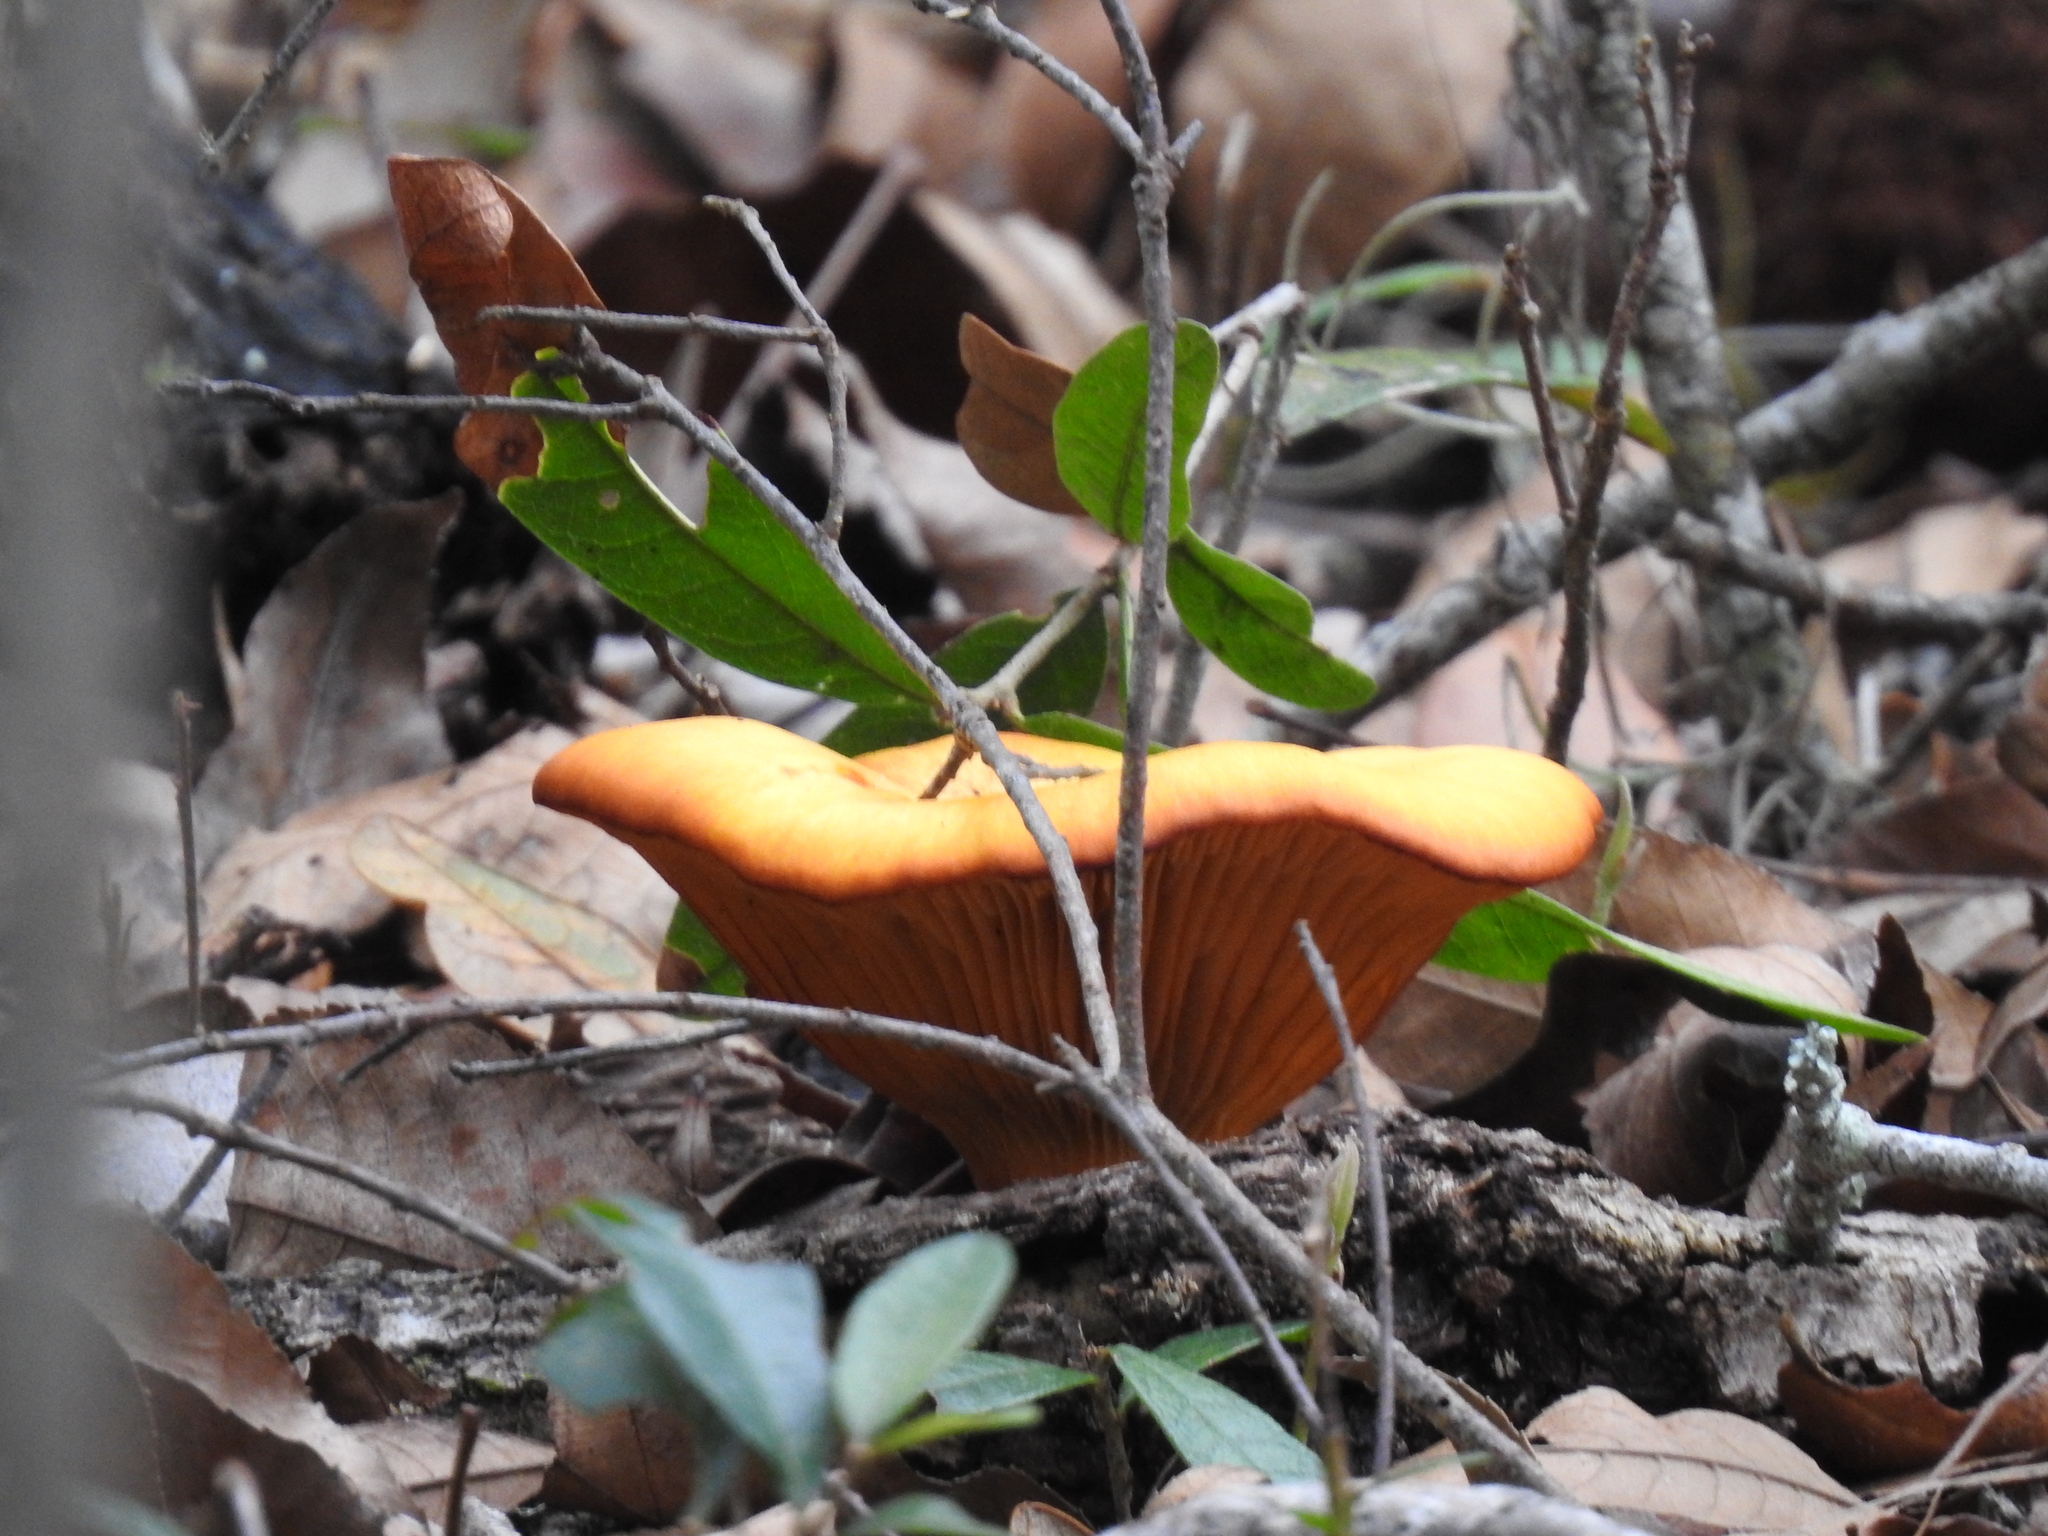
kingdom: Fungi
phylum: Basidiomycota
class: Agaricomycetes
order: Agaricales
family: Omphalotaceae
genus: Omphalotus
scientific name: Omphalotus subilludens
